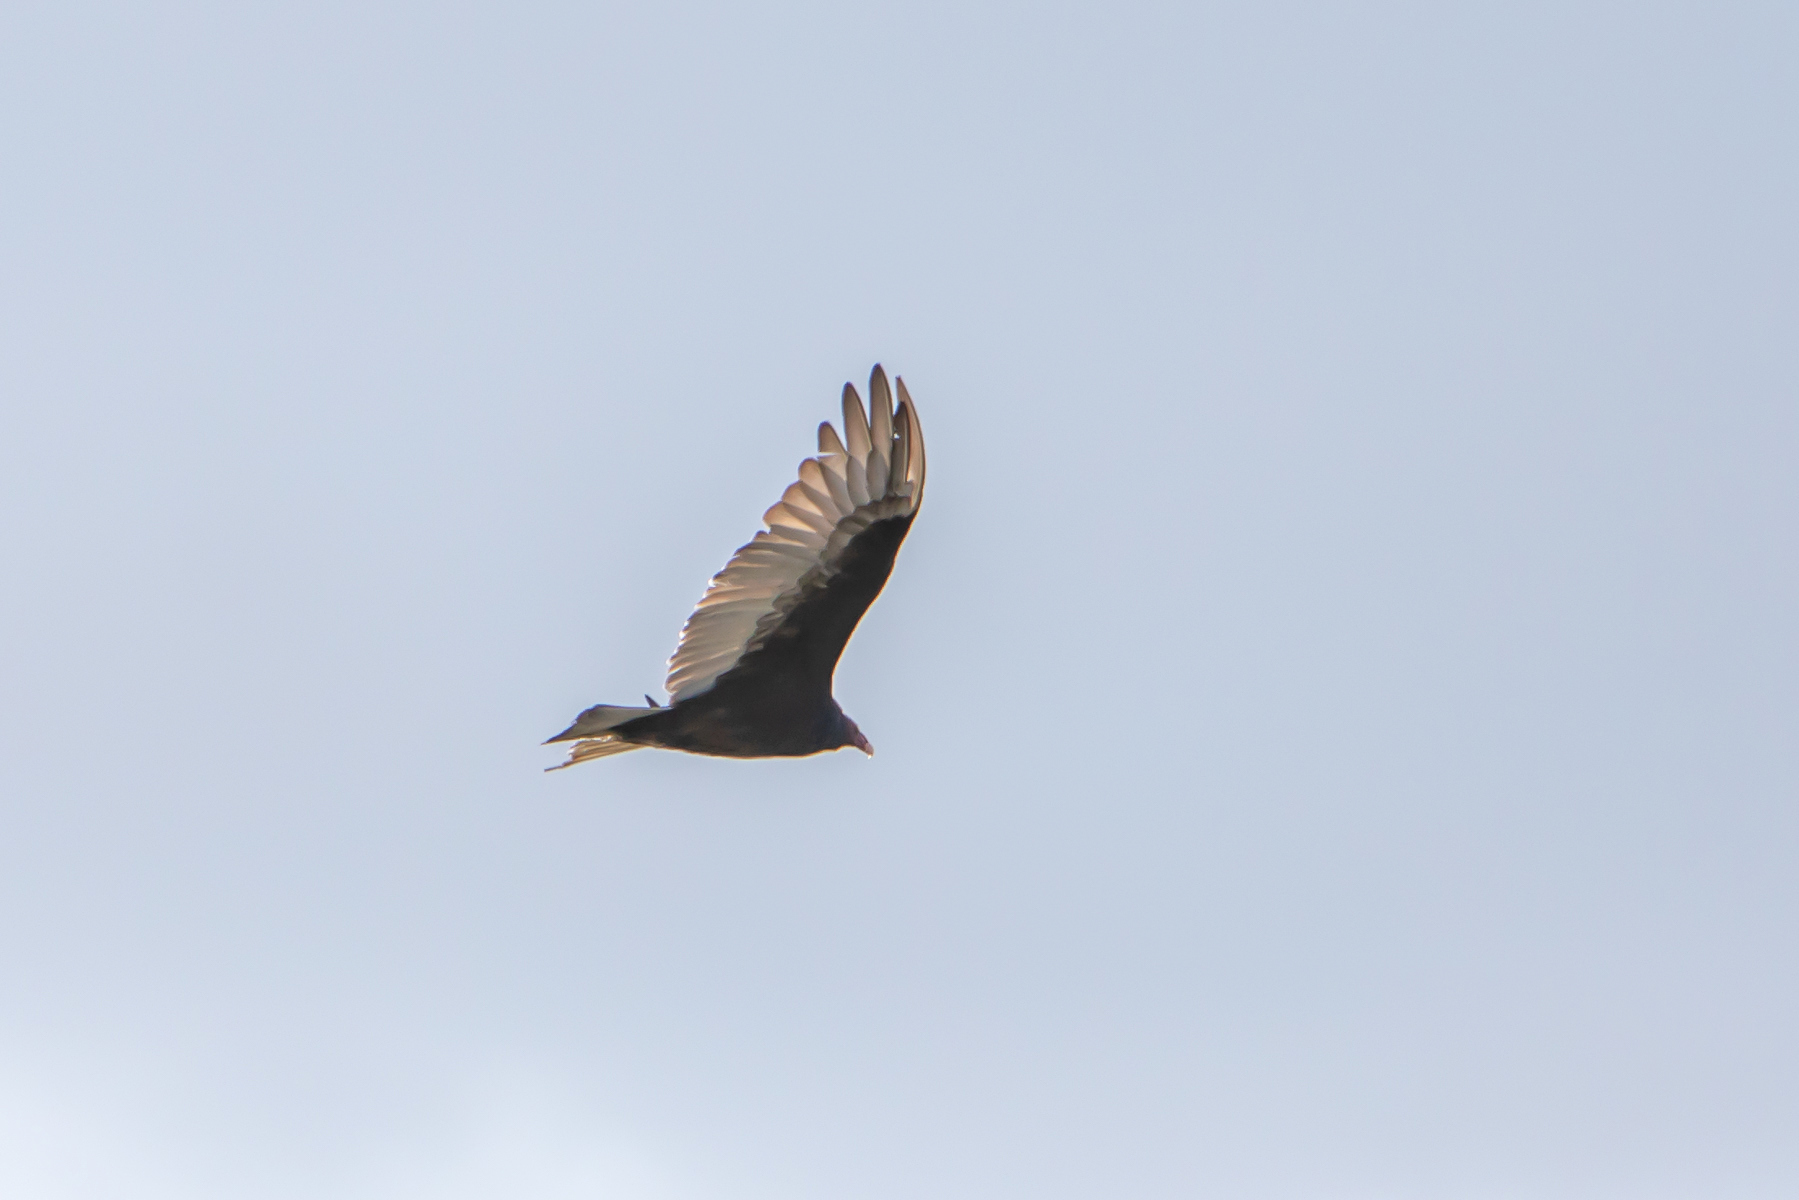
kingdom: Animalia
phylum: Chordata
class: Aves
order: Accipitriformes
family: Cathartidae
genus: Cathartes
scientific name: Cathartes aura
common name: Turkey vulture
